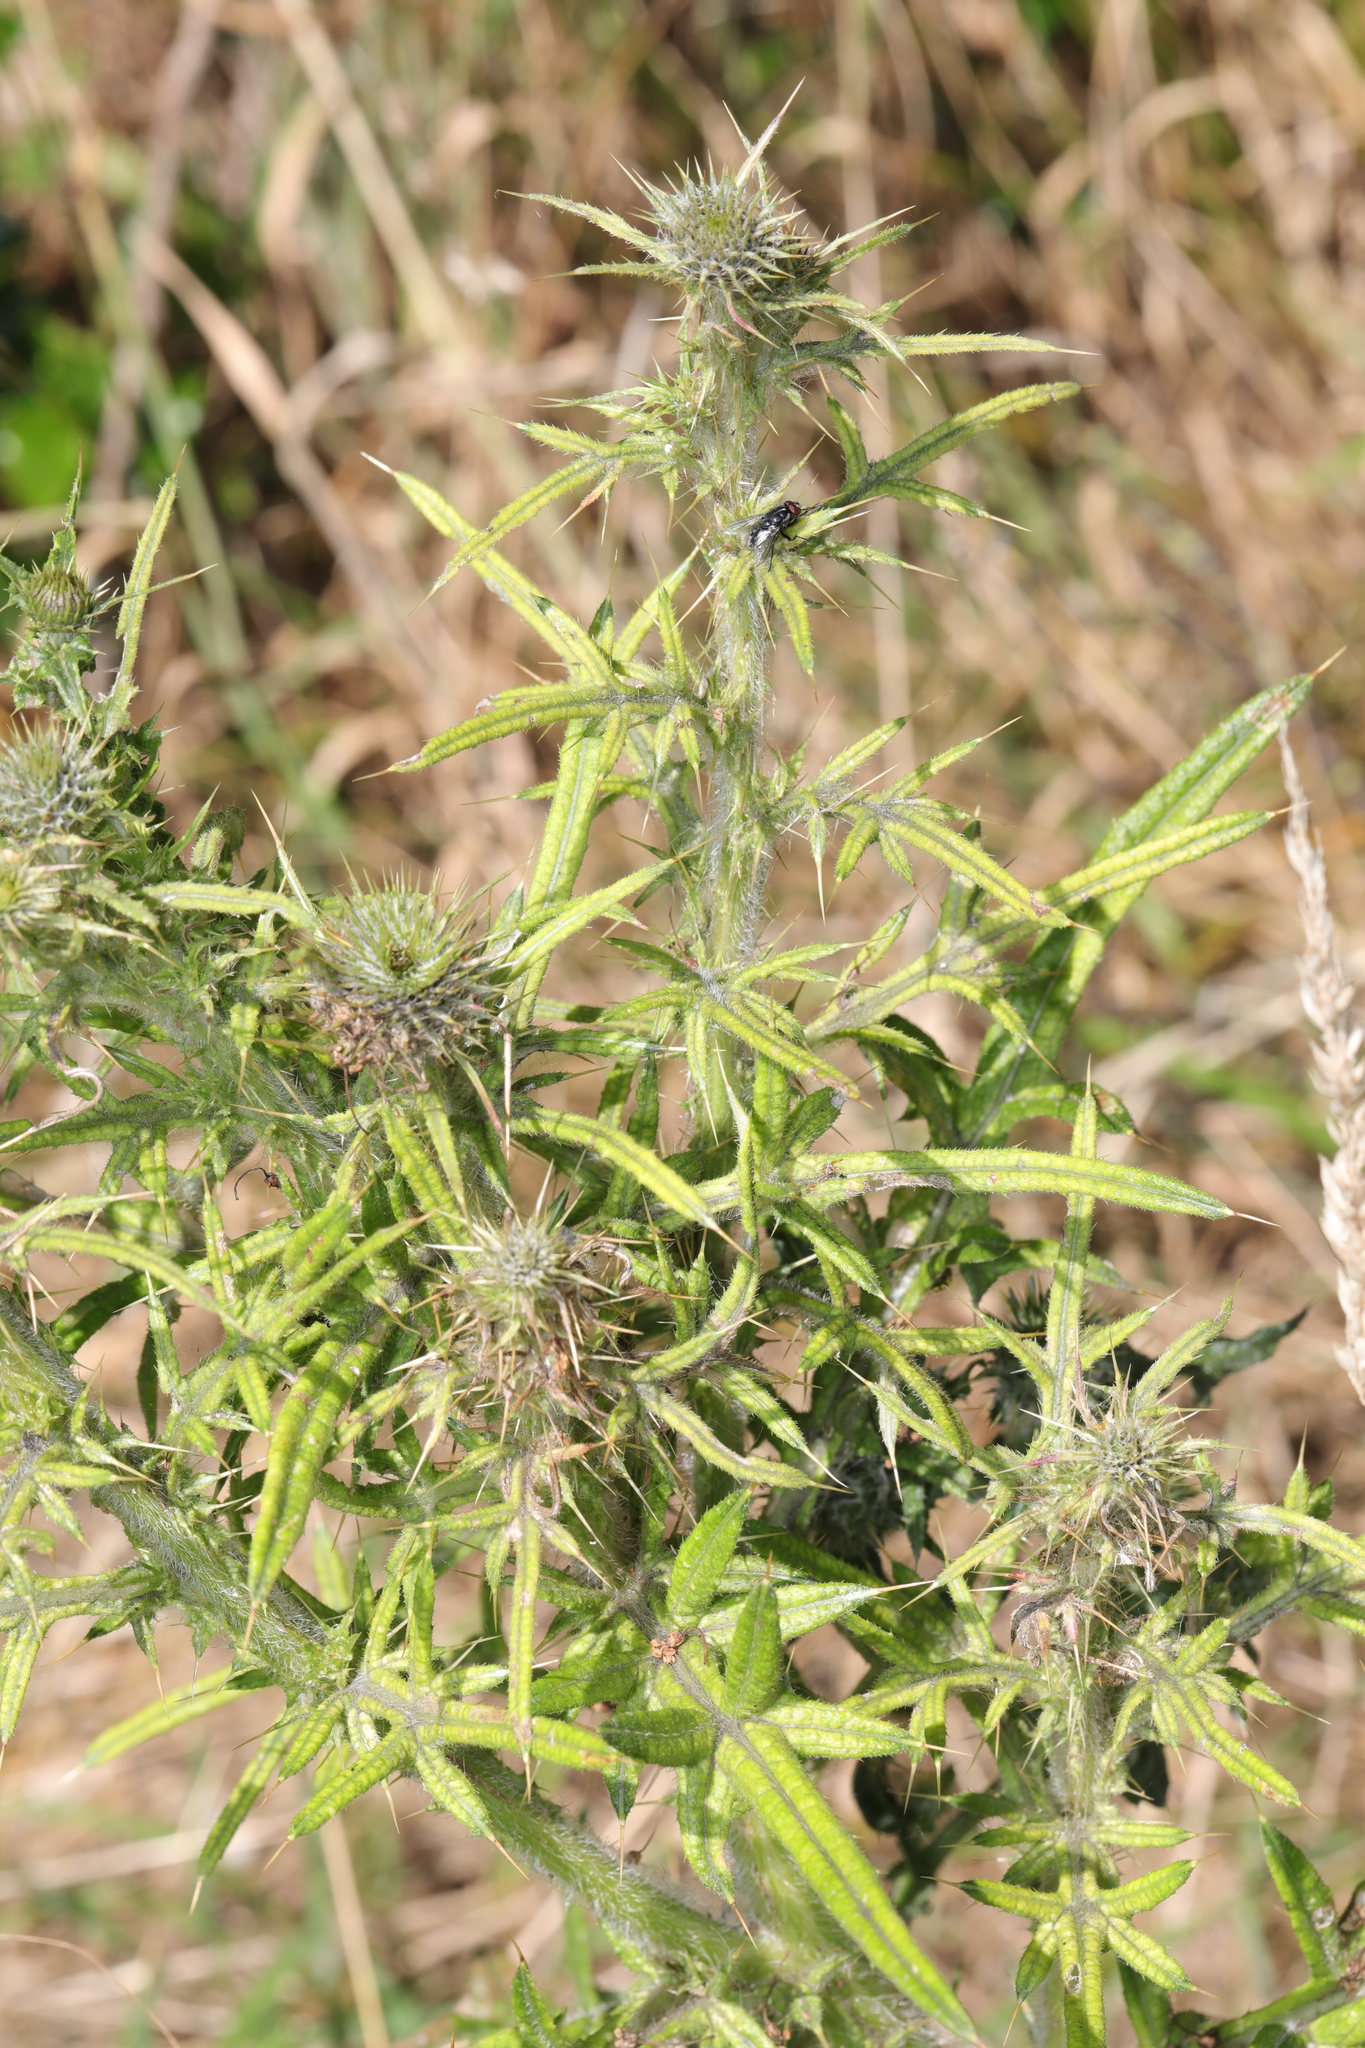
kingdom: Plantae
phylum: Tracheophyta
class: Magnoliopsida
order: Asterales
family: Asteraceae
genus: Cirsium
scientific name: Cirsium vulgare
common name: Bull thistle
